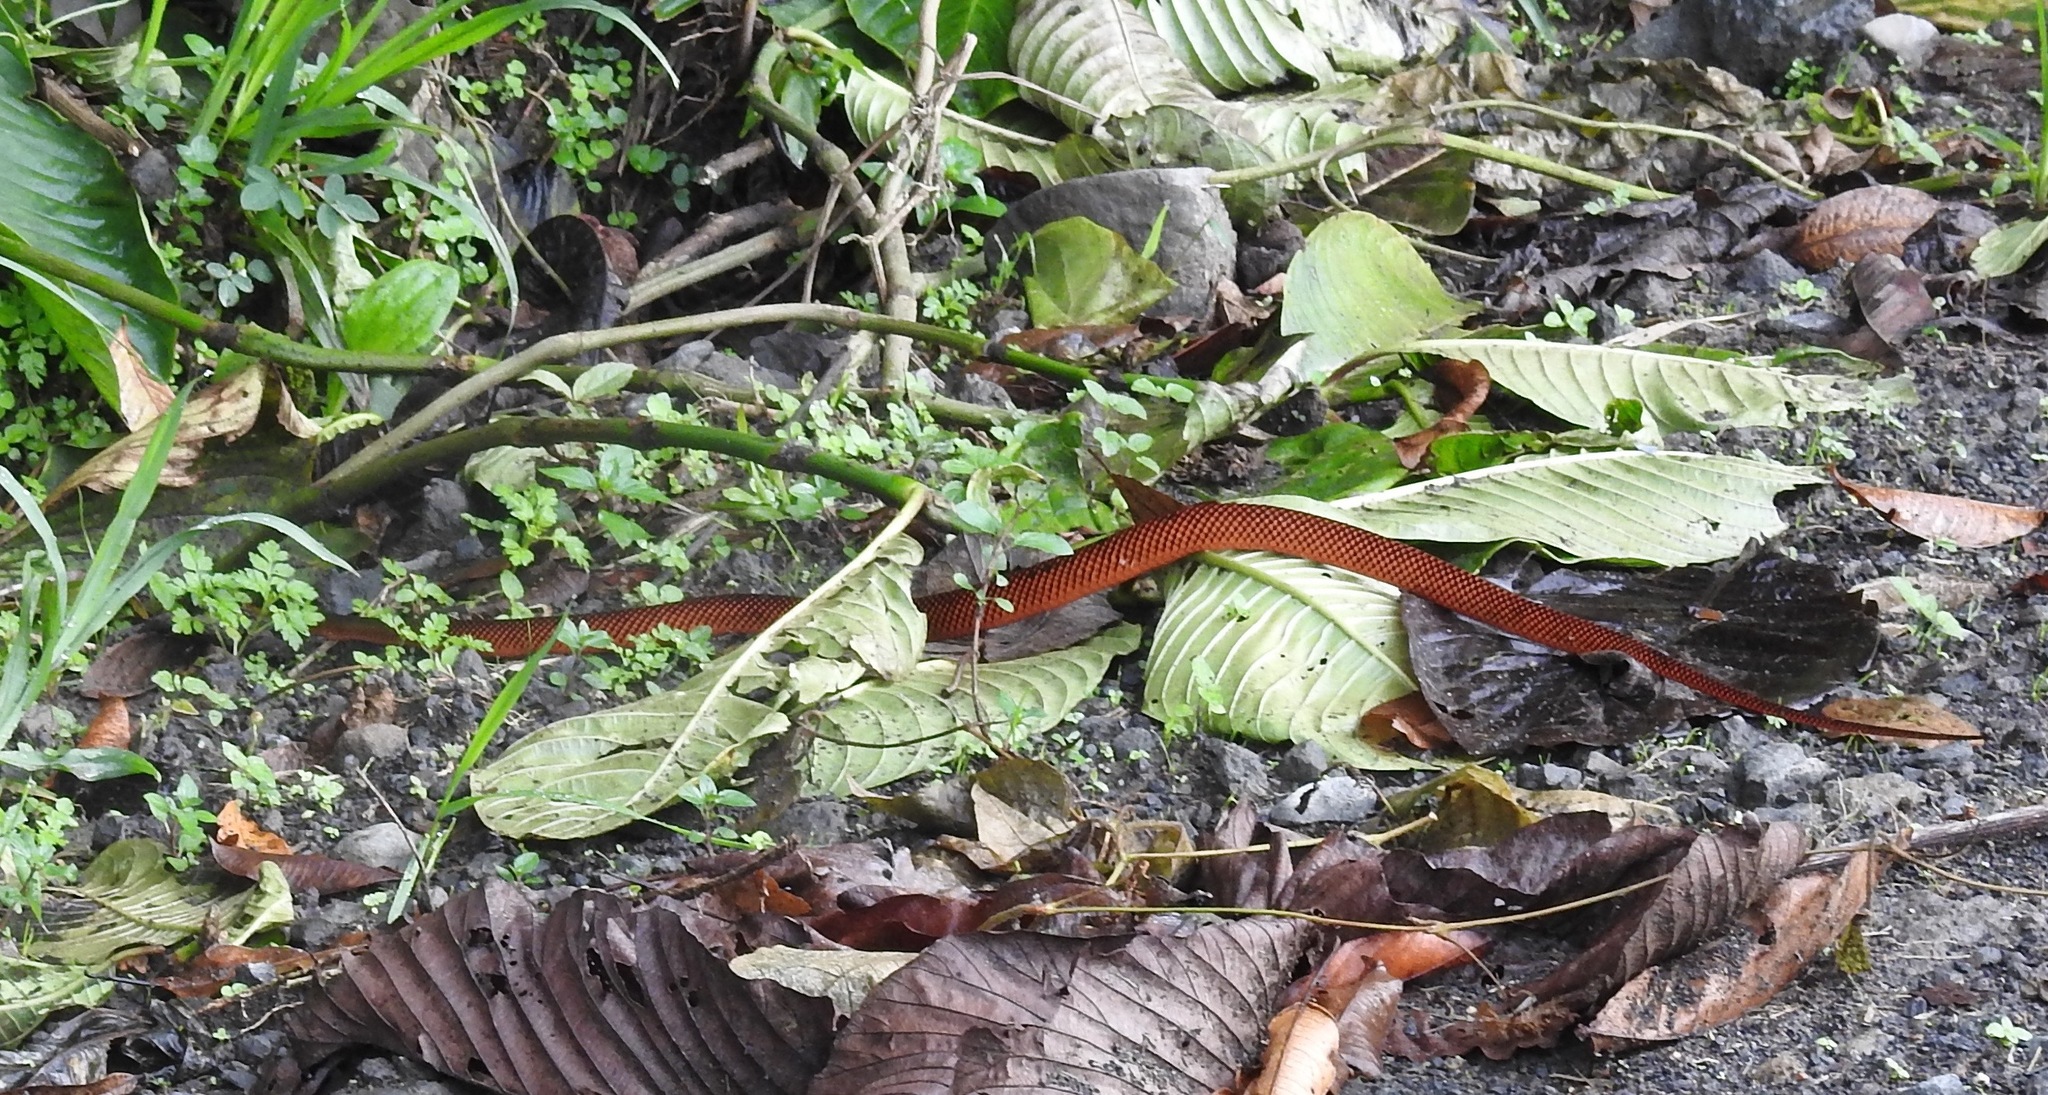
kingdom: Animalia
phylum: Chordata
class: Squamata
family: Colubridae
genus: Oxyrhopus
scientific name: Oxyrhopus formosus
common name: Beautiful calico snake
